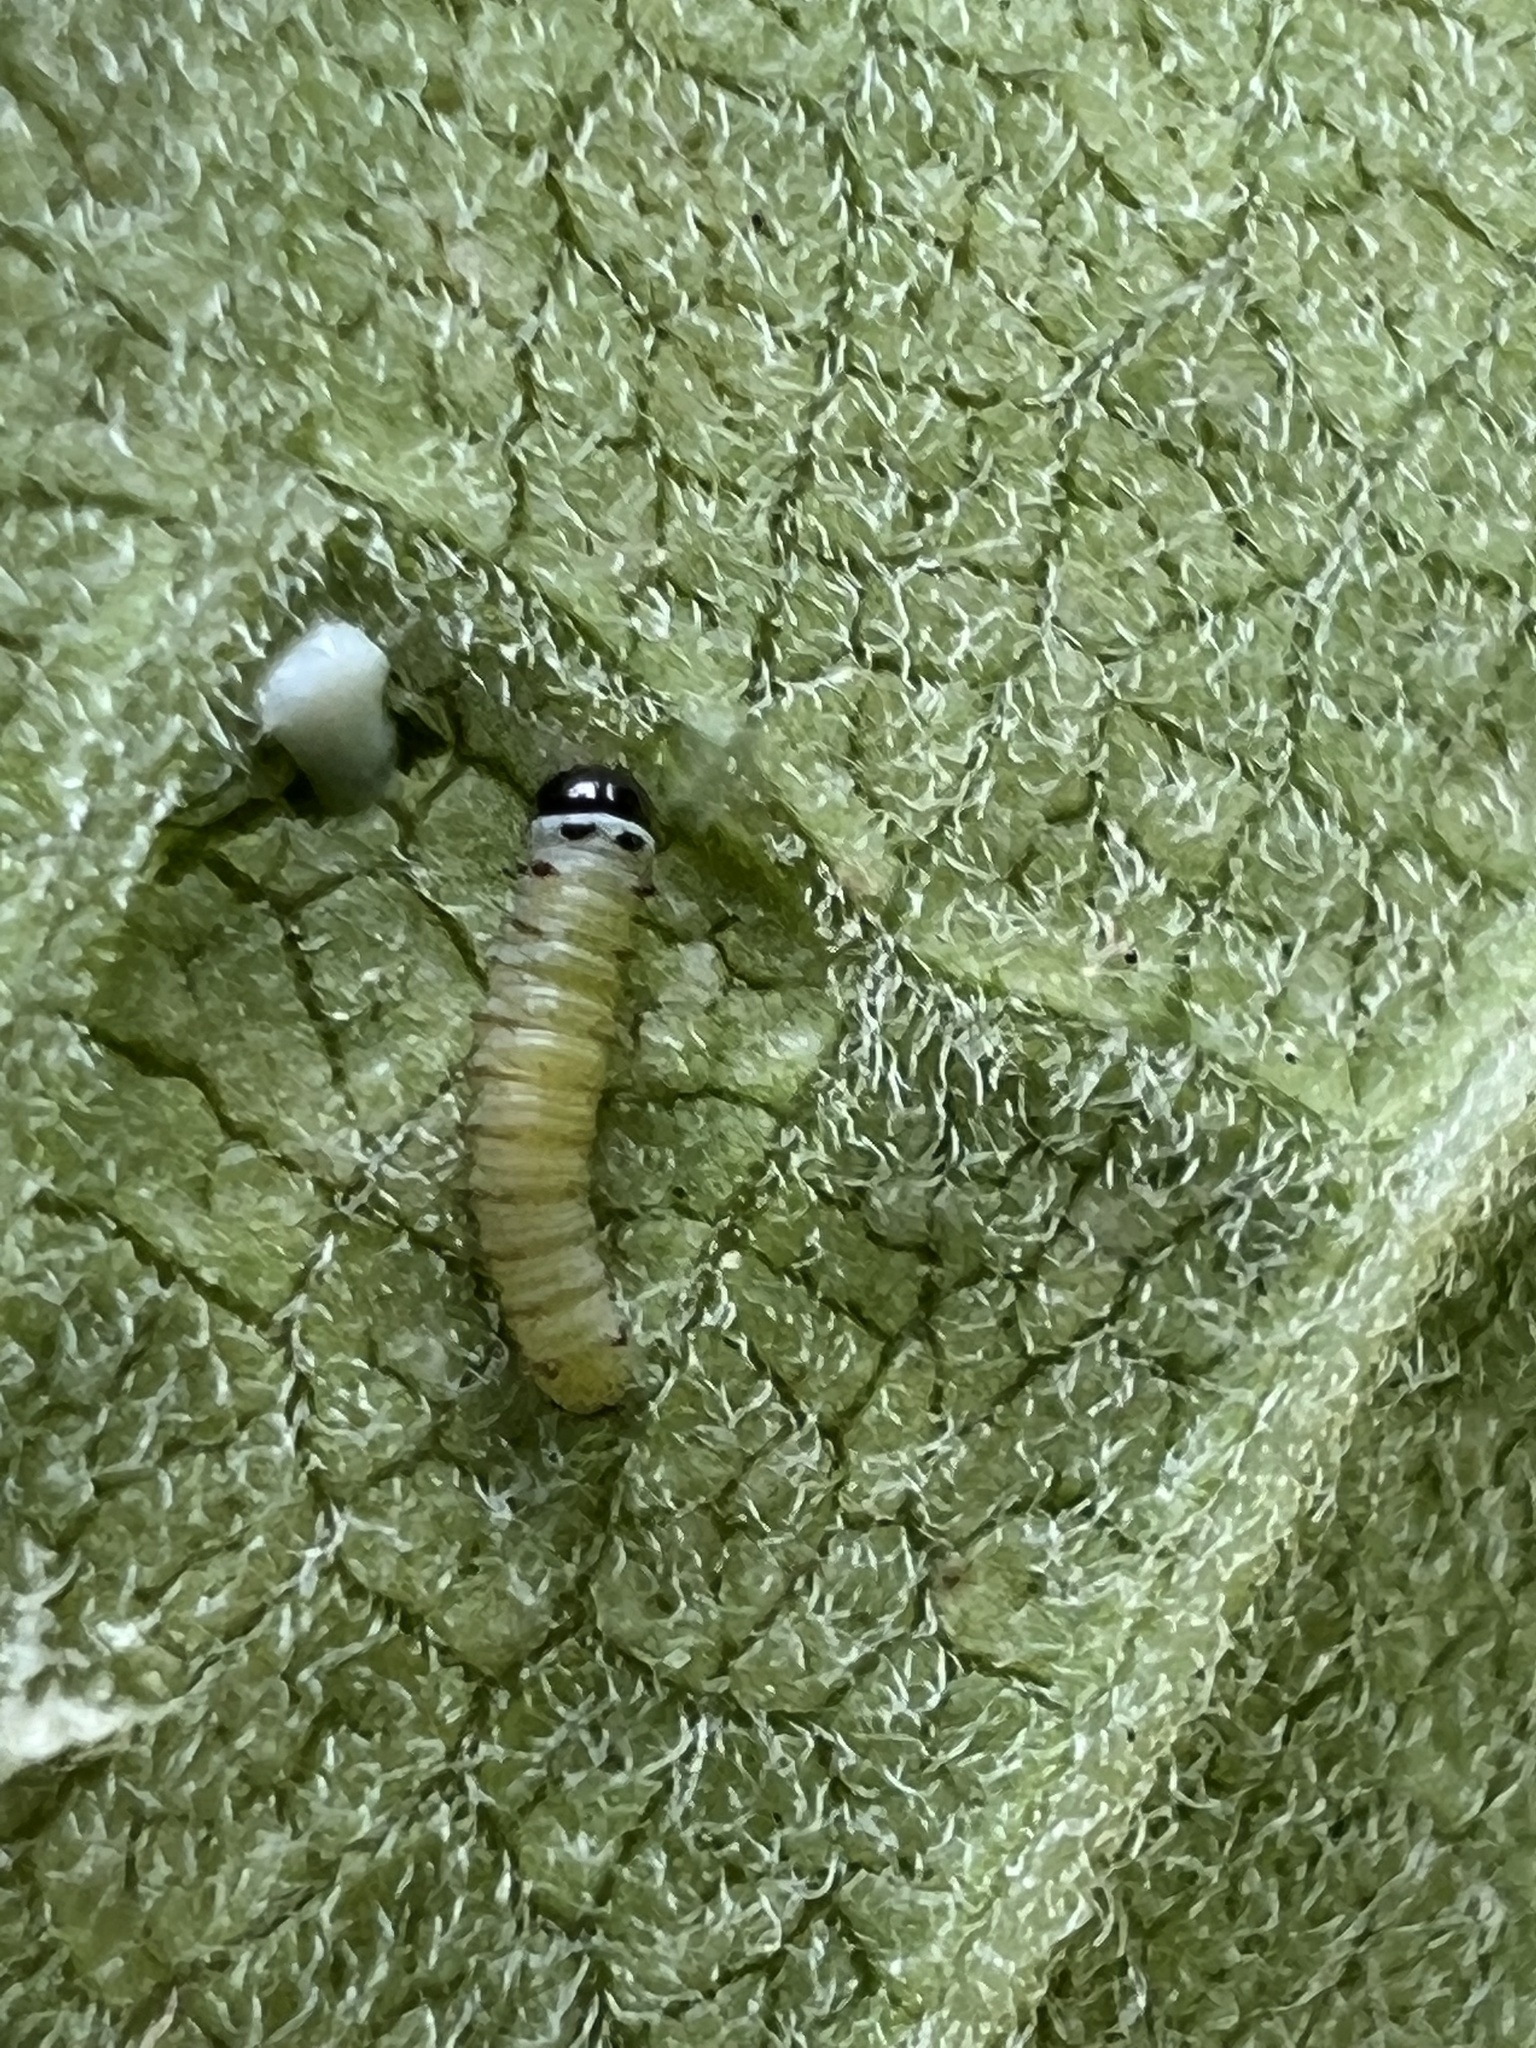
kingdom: Animalia
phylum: Arthropoda
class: Insecta
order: Lepidoptera
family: Nymphalidae
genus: Danaus
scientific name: Danaus plexippus
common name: Monarch
